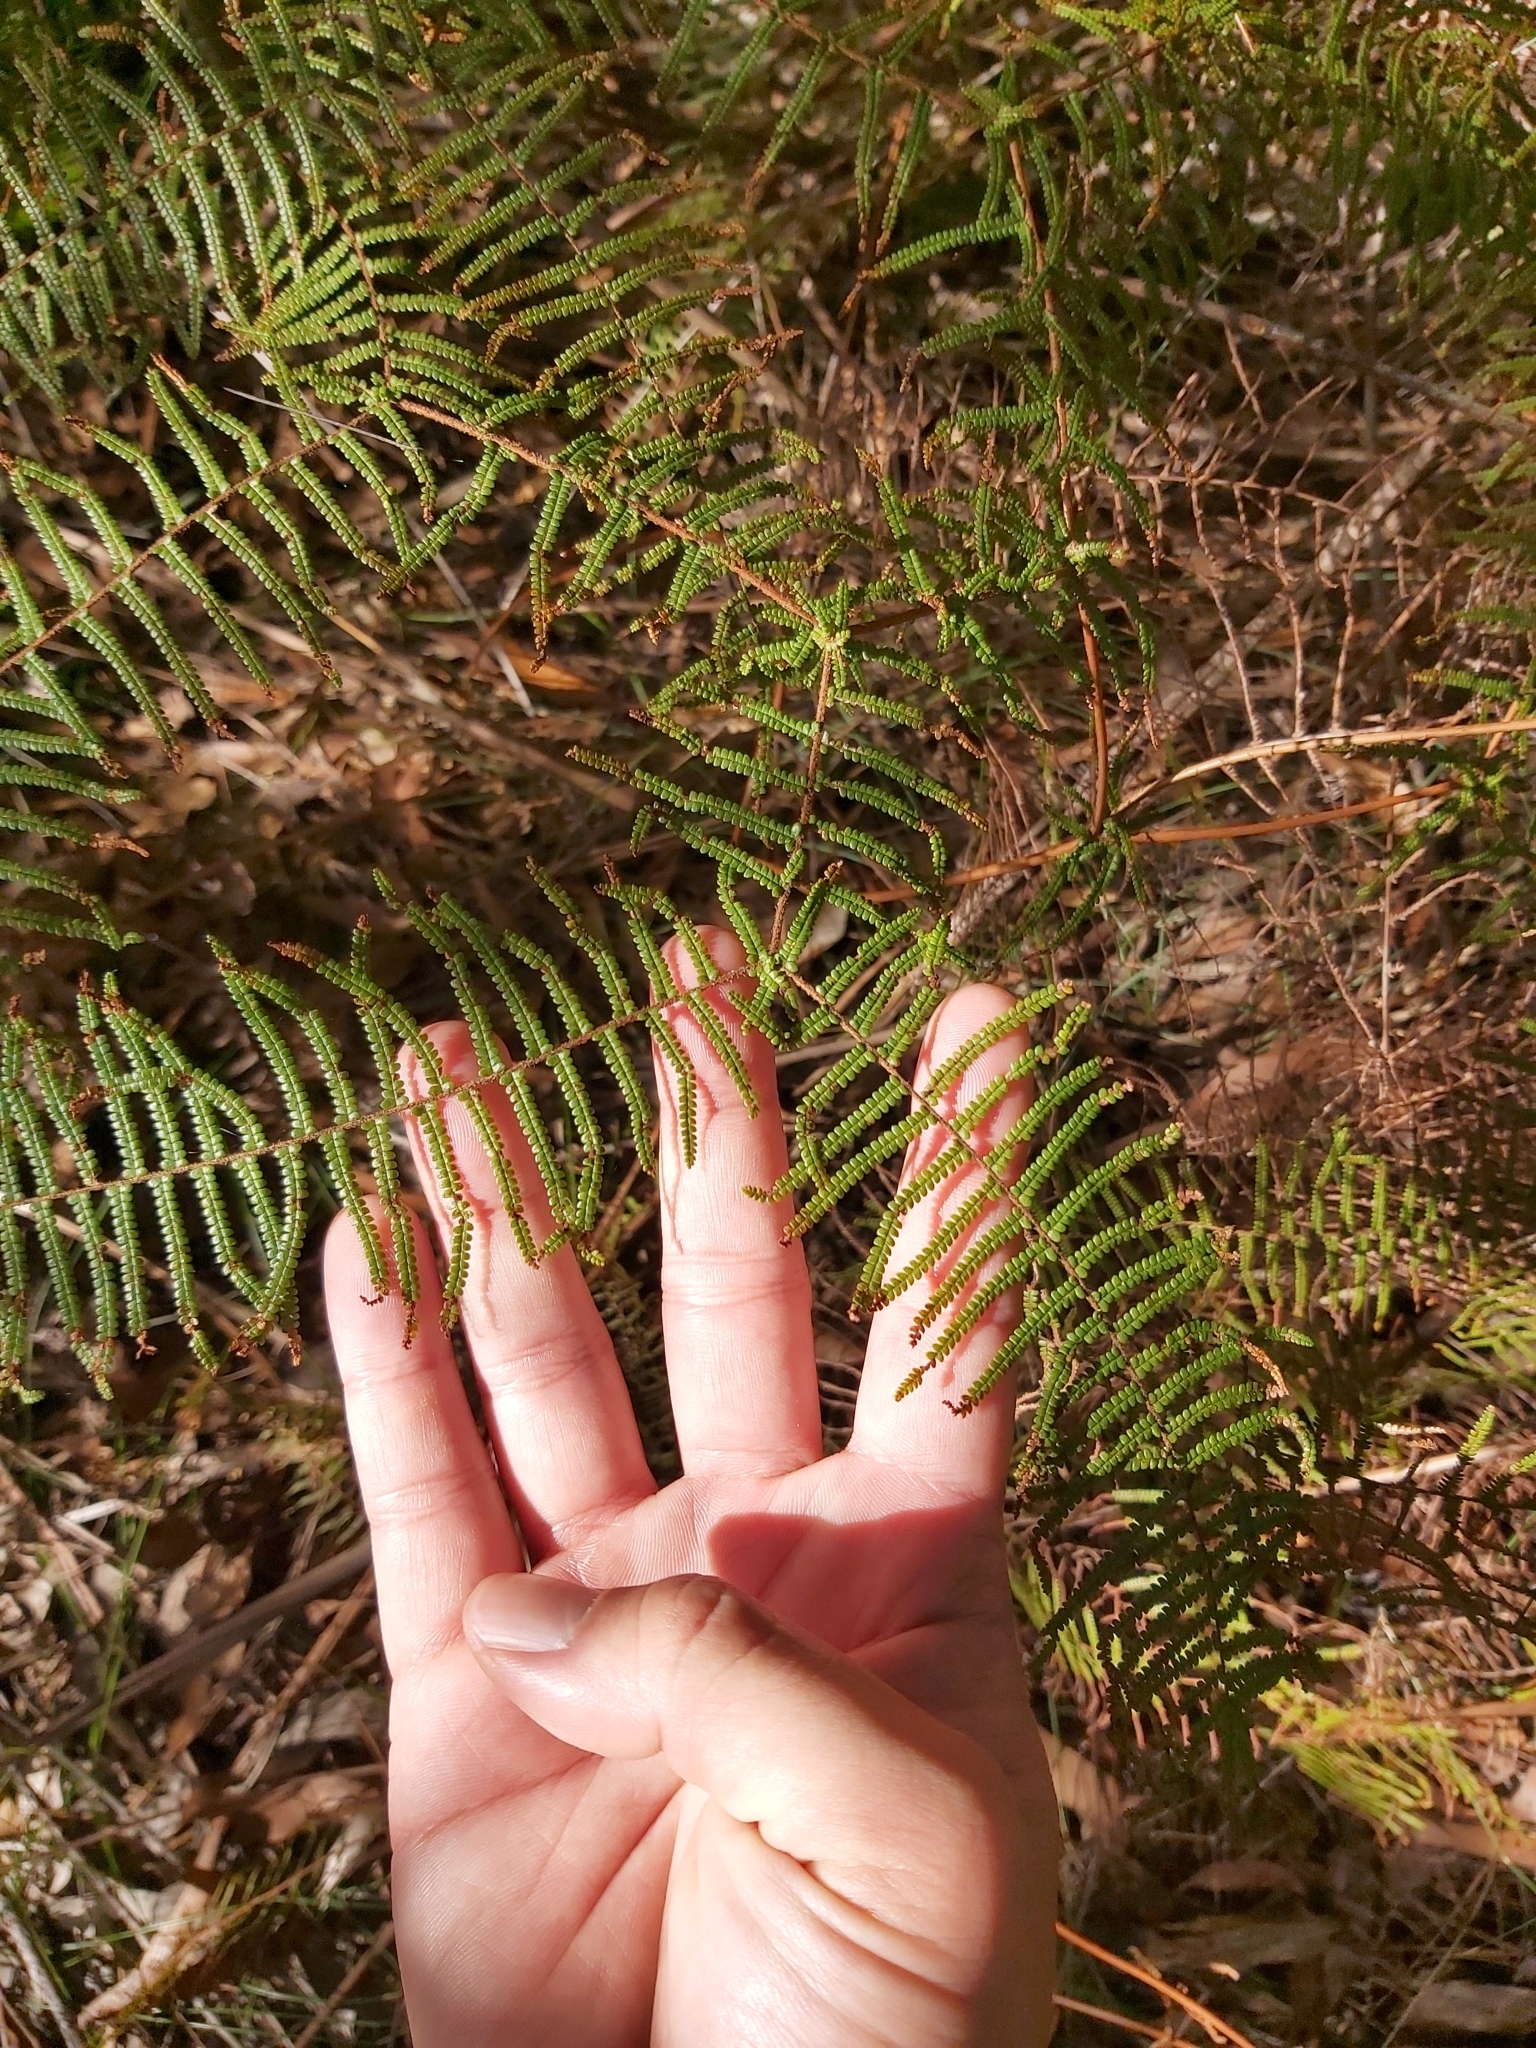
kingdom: Plantae
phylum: Tracheophyta
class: Polypodiopsida
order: Gleicheniales
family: Gleicheniaceae
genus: Gleichenia
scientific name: Gleichenia microphylla
